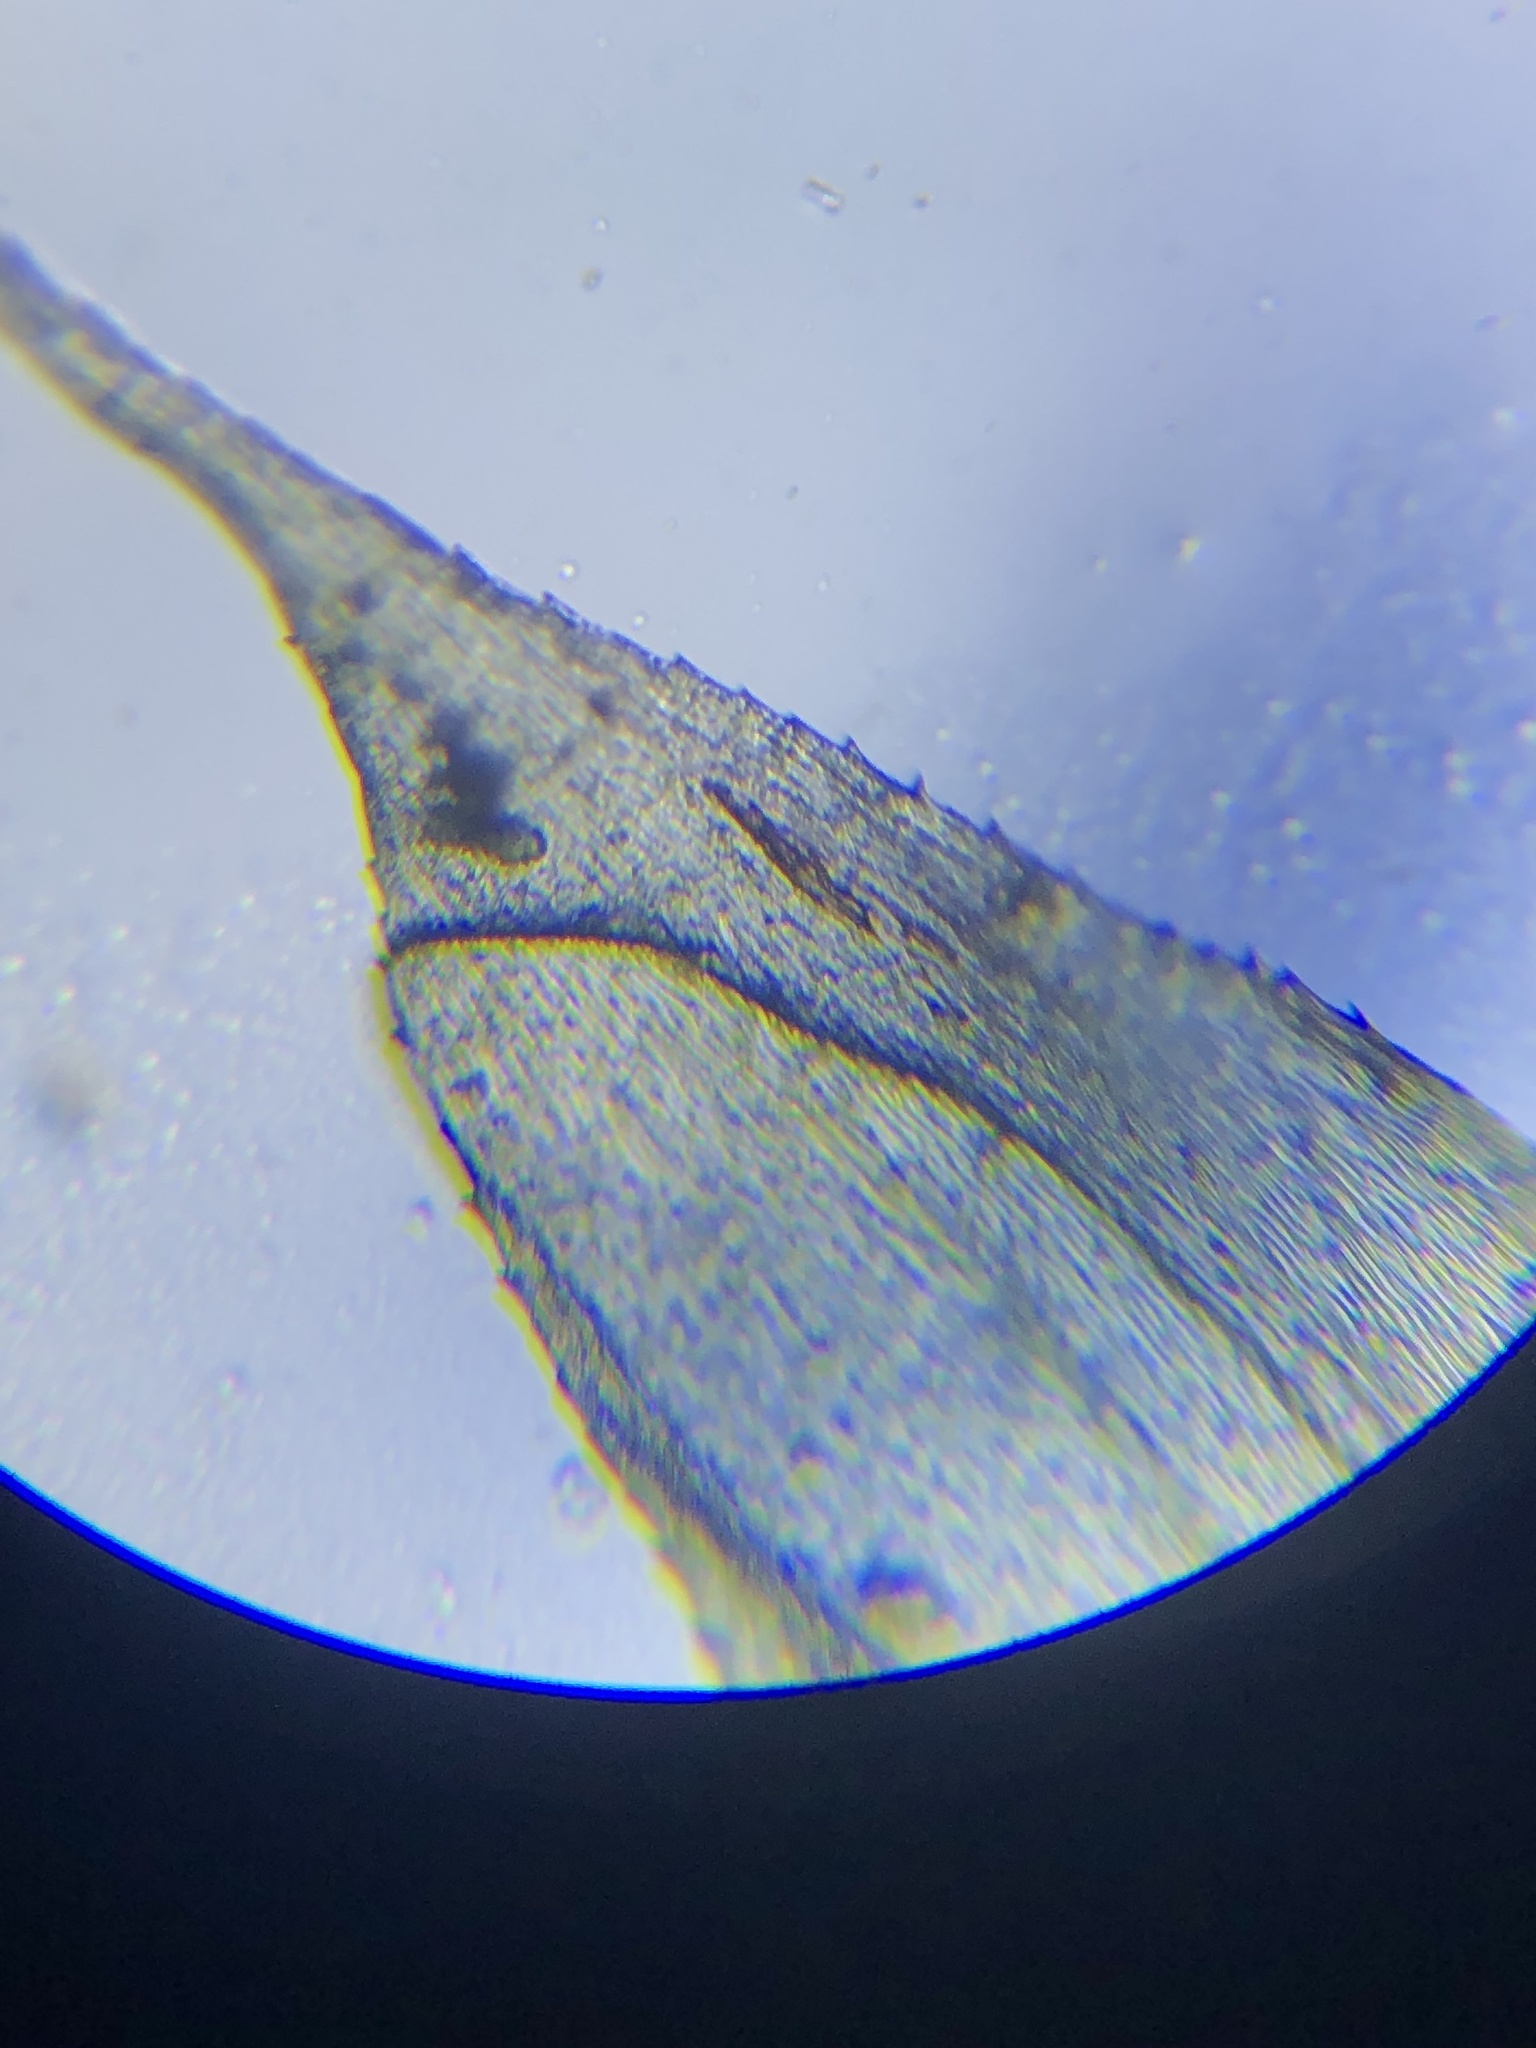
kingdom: Plantae
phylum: Bryophyta
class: Bryopsida
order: Hypnales
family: Brachytheciaceae
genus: Rhynchostegium
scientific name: Rhynchostegium serrulatum
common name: Serrulate-leaved long-beaked moss
